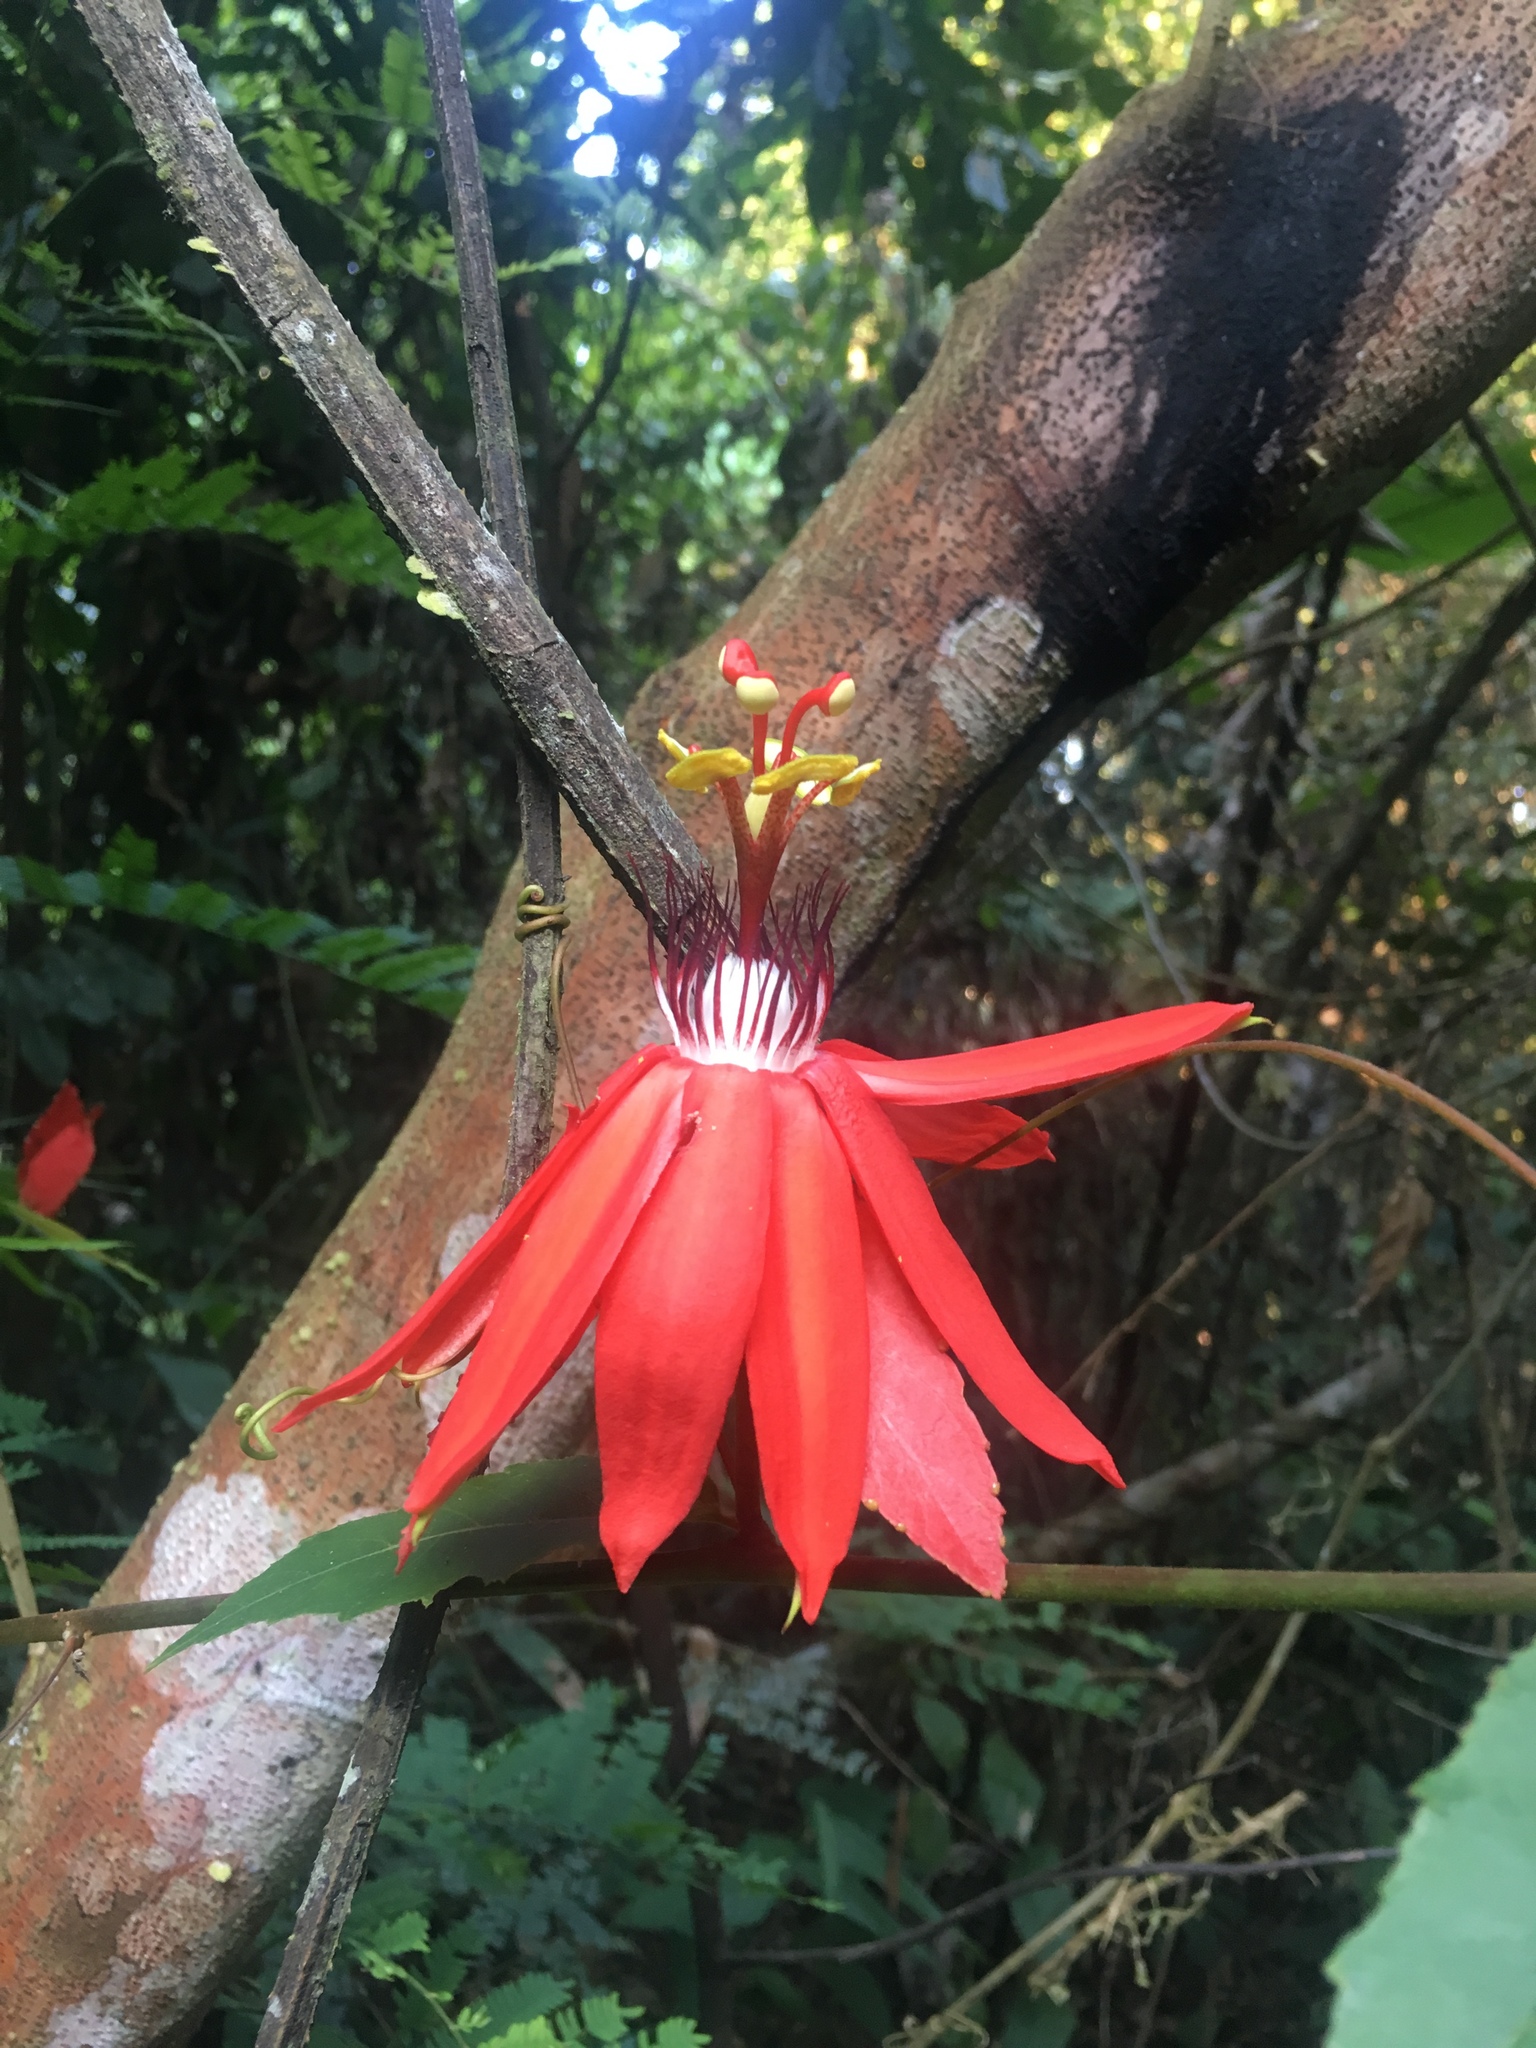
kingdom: Plantae
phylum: Tracheophyta
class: Magnoliopsida
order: Malpighiales
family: Passifloraceae
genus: Passiflora
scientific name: Passiflora miniata
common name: Red granadilla
